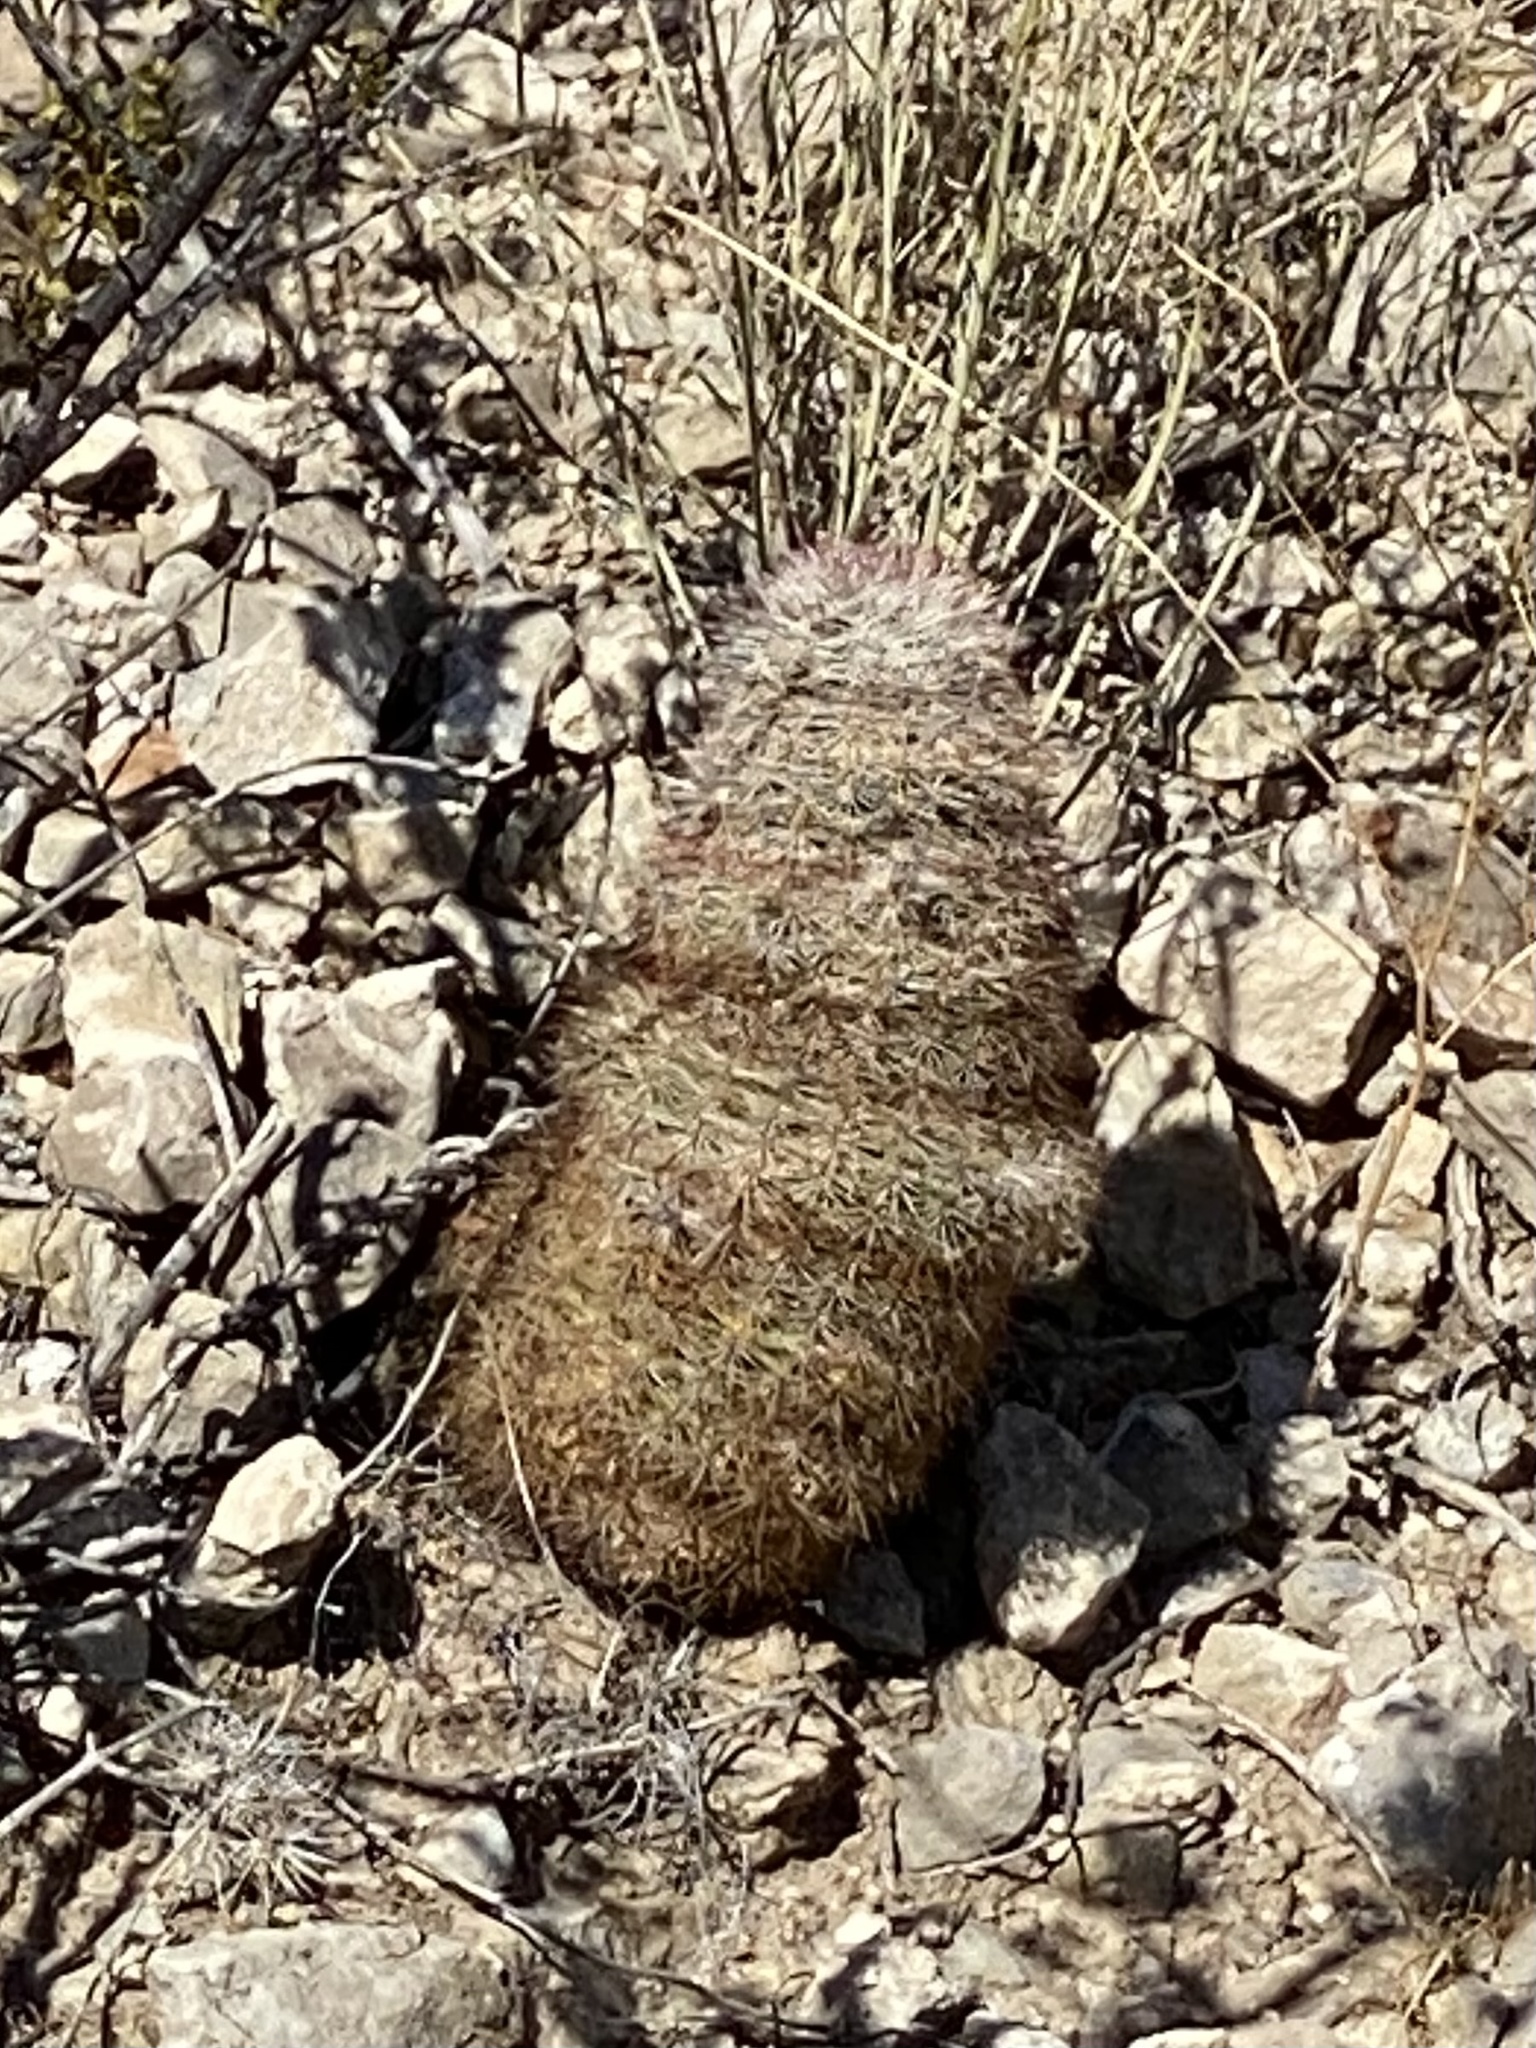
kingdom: Plantae
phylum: Tracheophyta
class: Magnoliopsida
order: Caryophyllales
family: Cactaceae
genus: Echinocereus
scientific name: Echinocereus dasyacanthus
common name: Spiny hedgehog cactus
